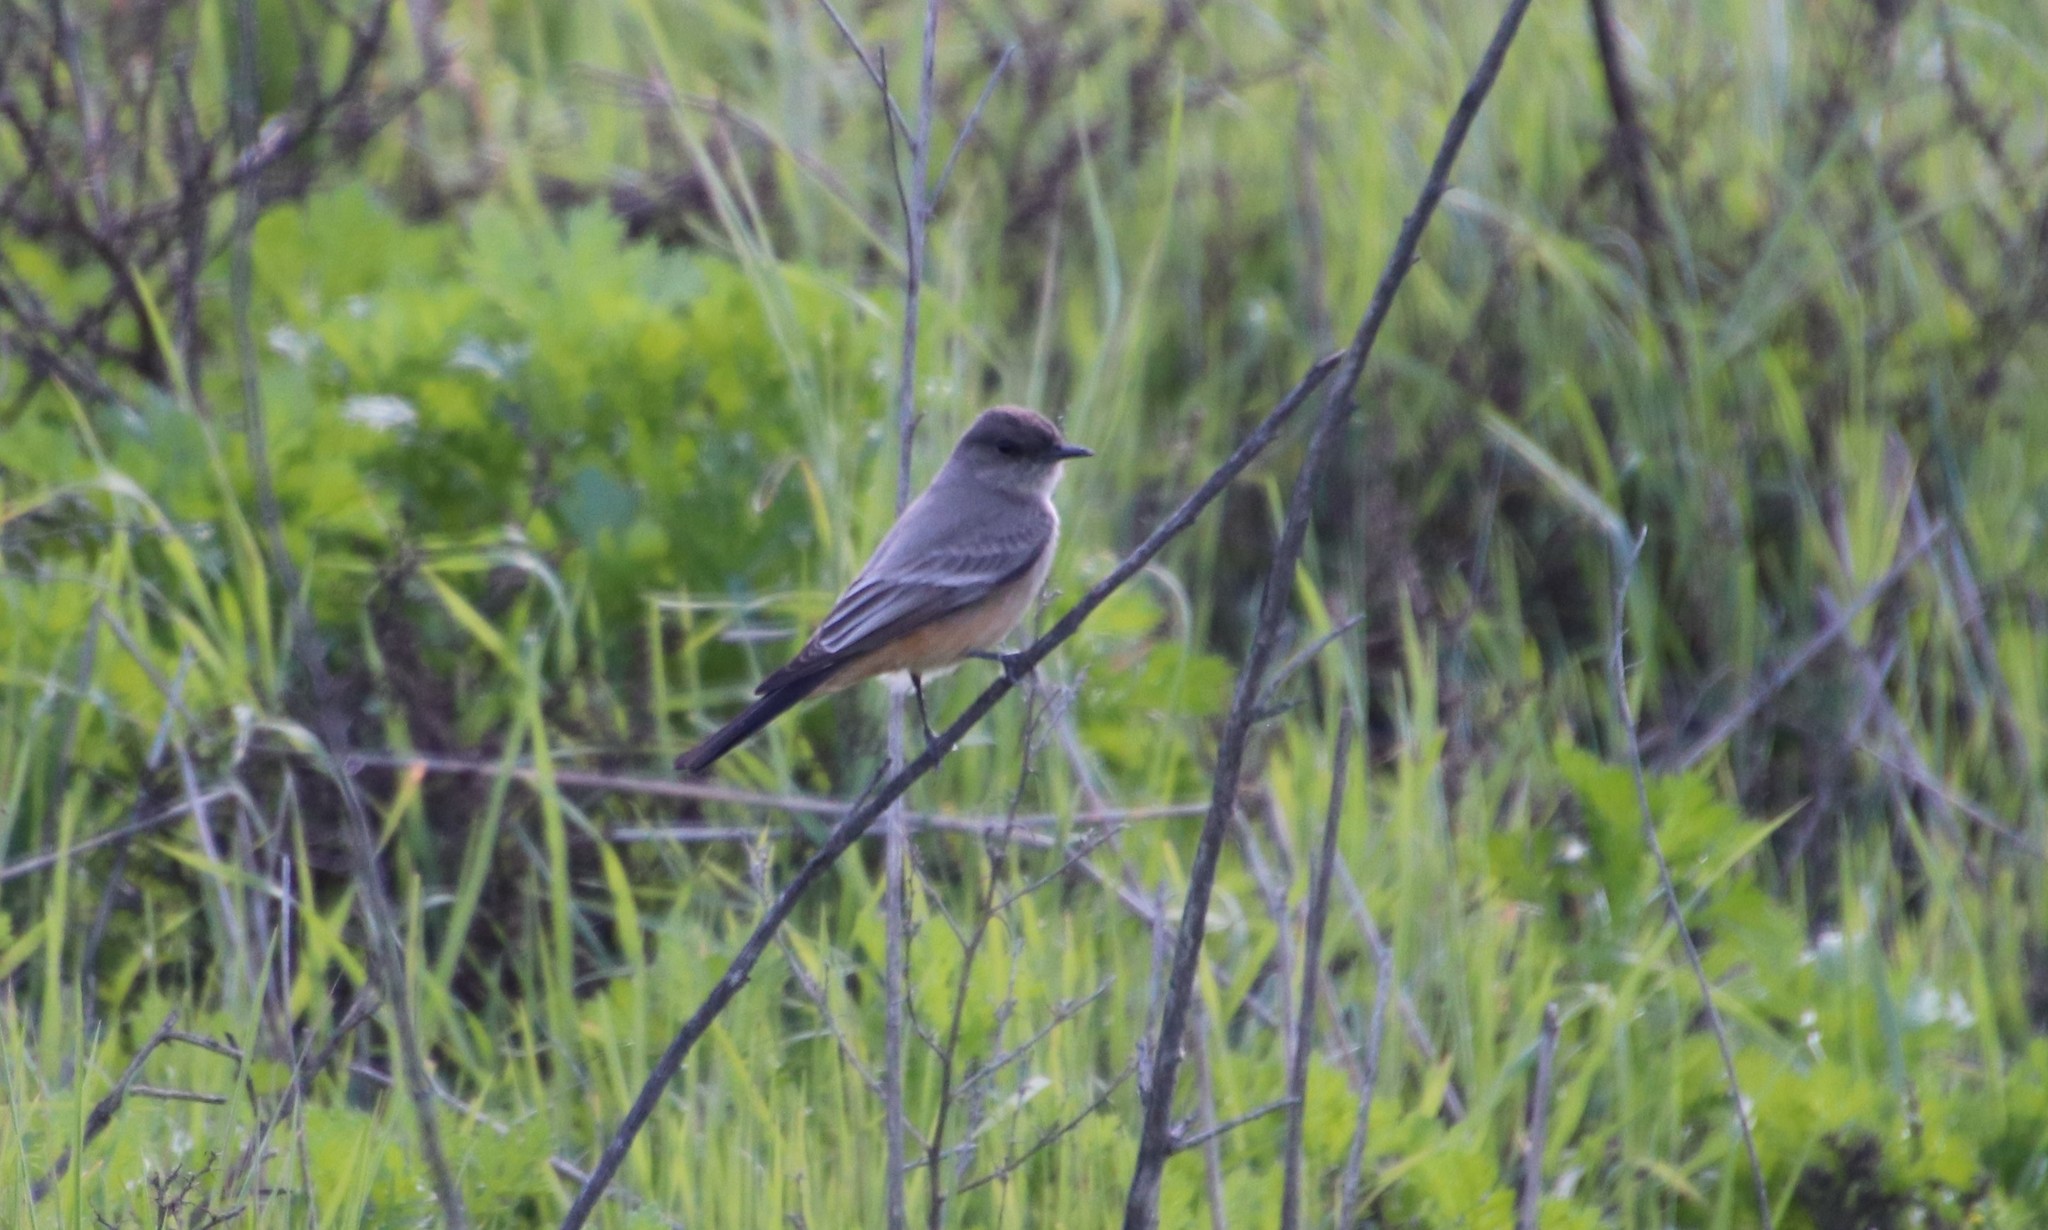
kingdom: Animalia
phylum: Chordata
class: Aves
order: Passeriformes
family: Tyrannidae
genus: Sayornis
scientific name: Sayornis saya
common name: Say's phoebe
